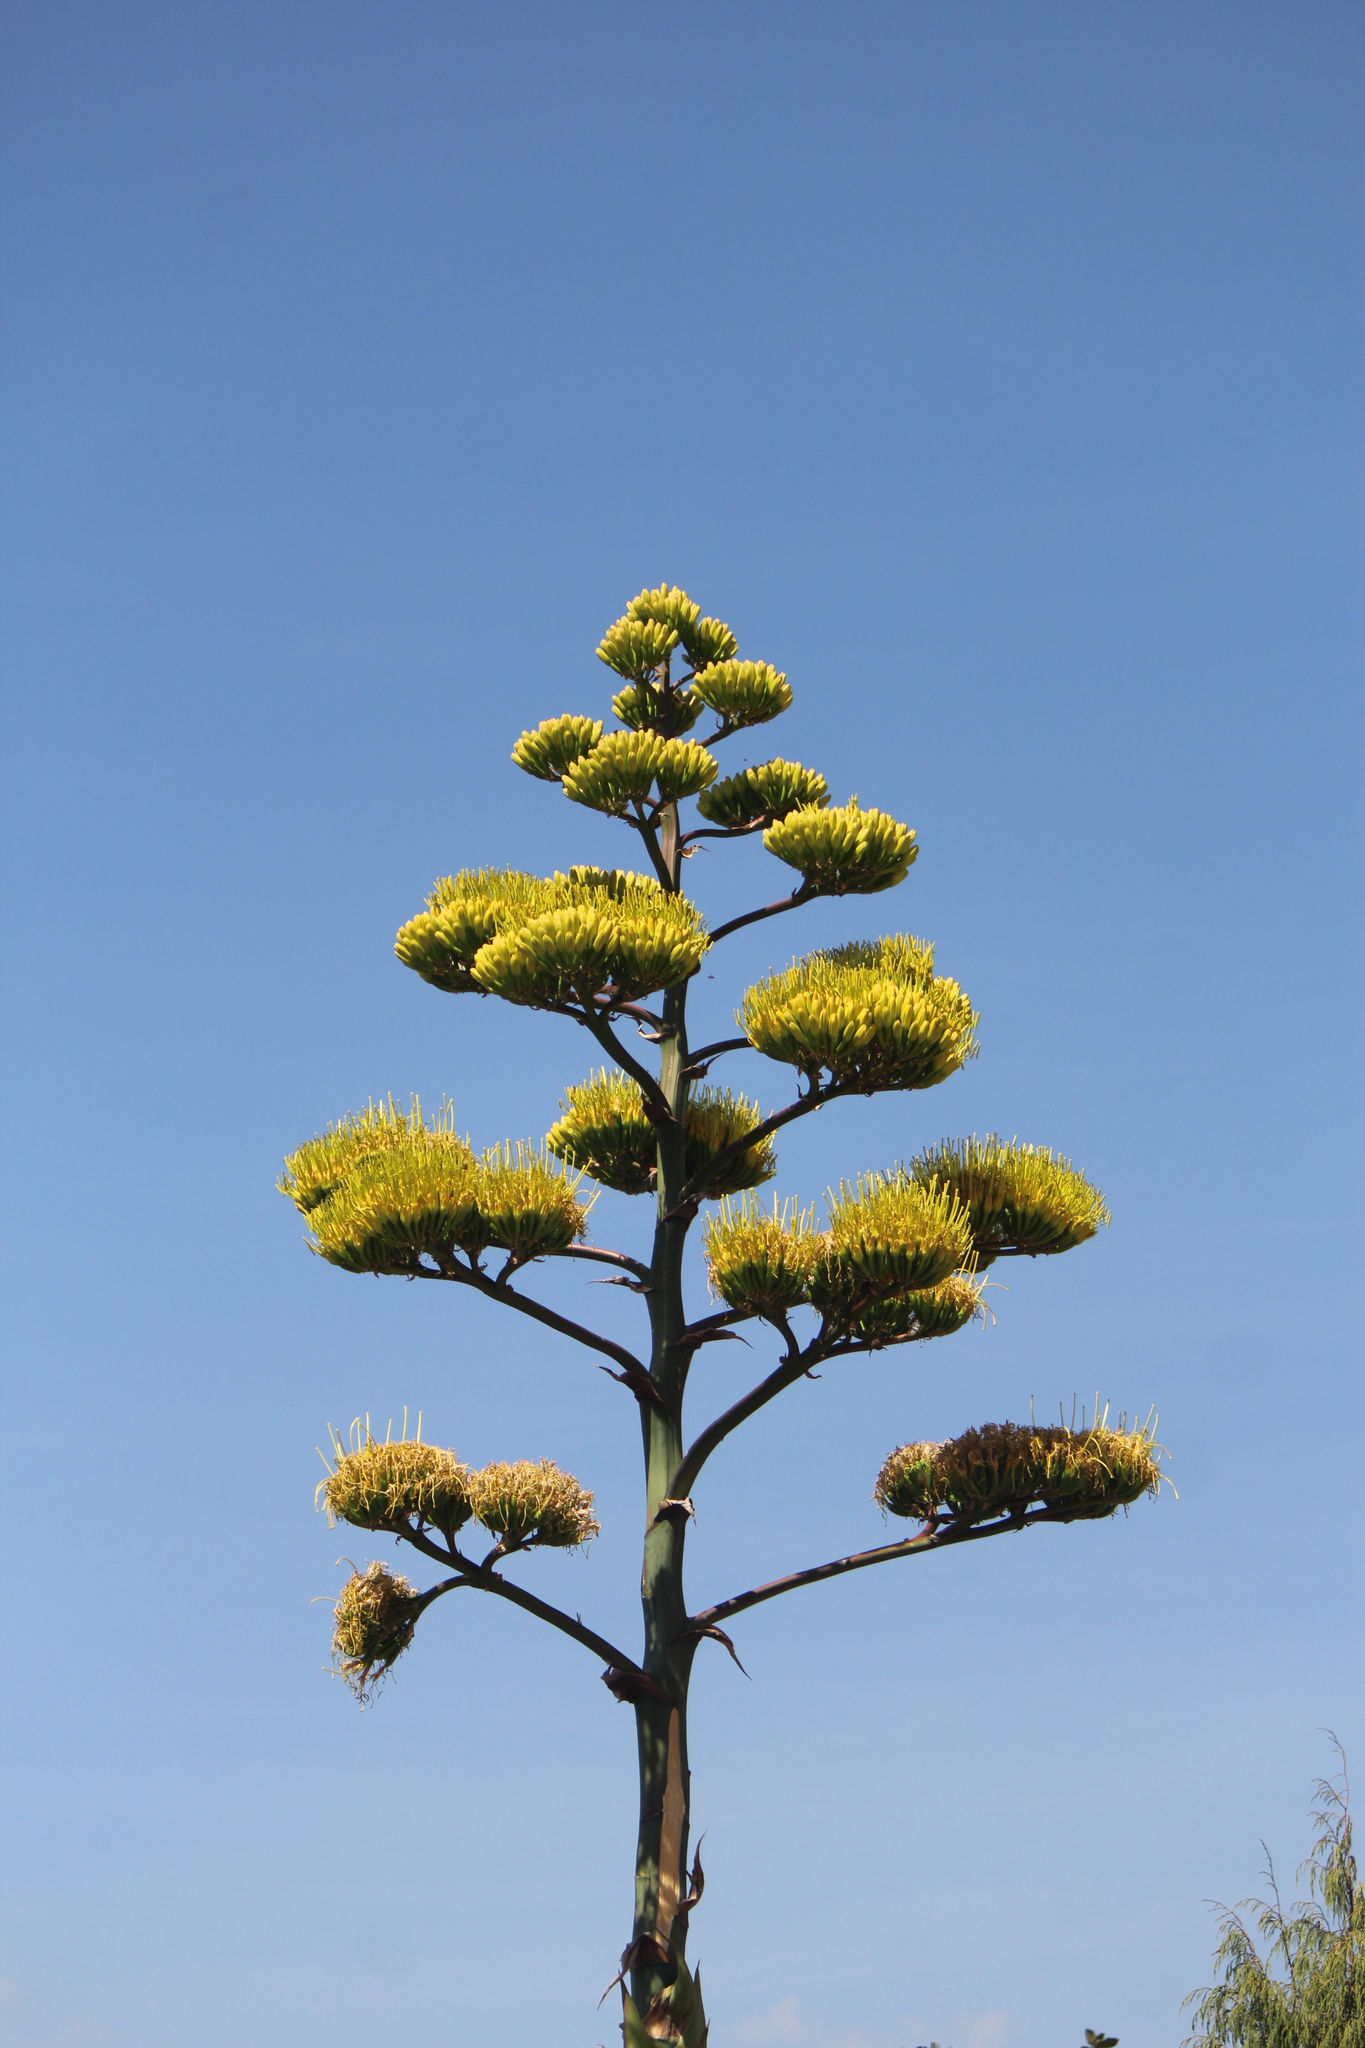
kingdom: Plantae
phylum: Tracheophyta
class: Liliopsida
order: Asparagales
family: Asparagaceae
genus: Agave
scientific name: Agave salmiana
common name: Pulque agave
